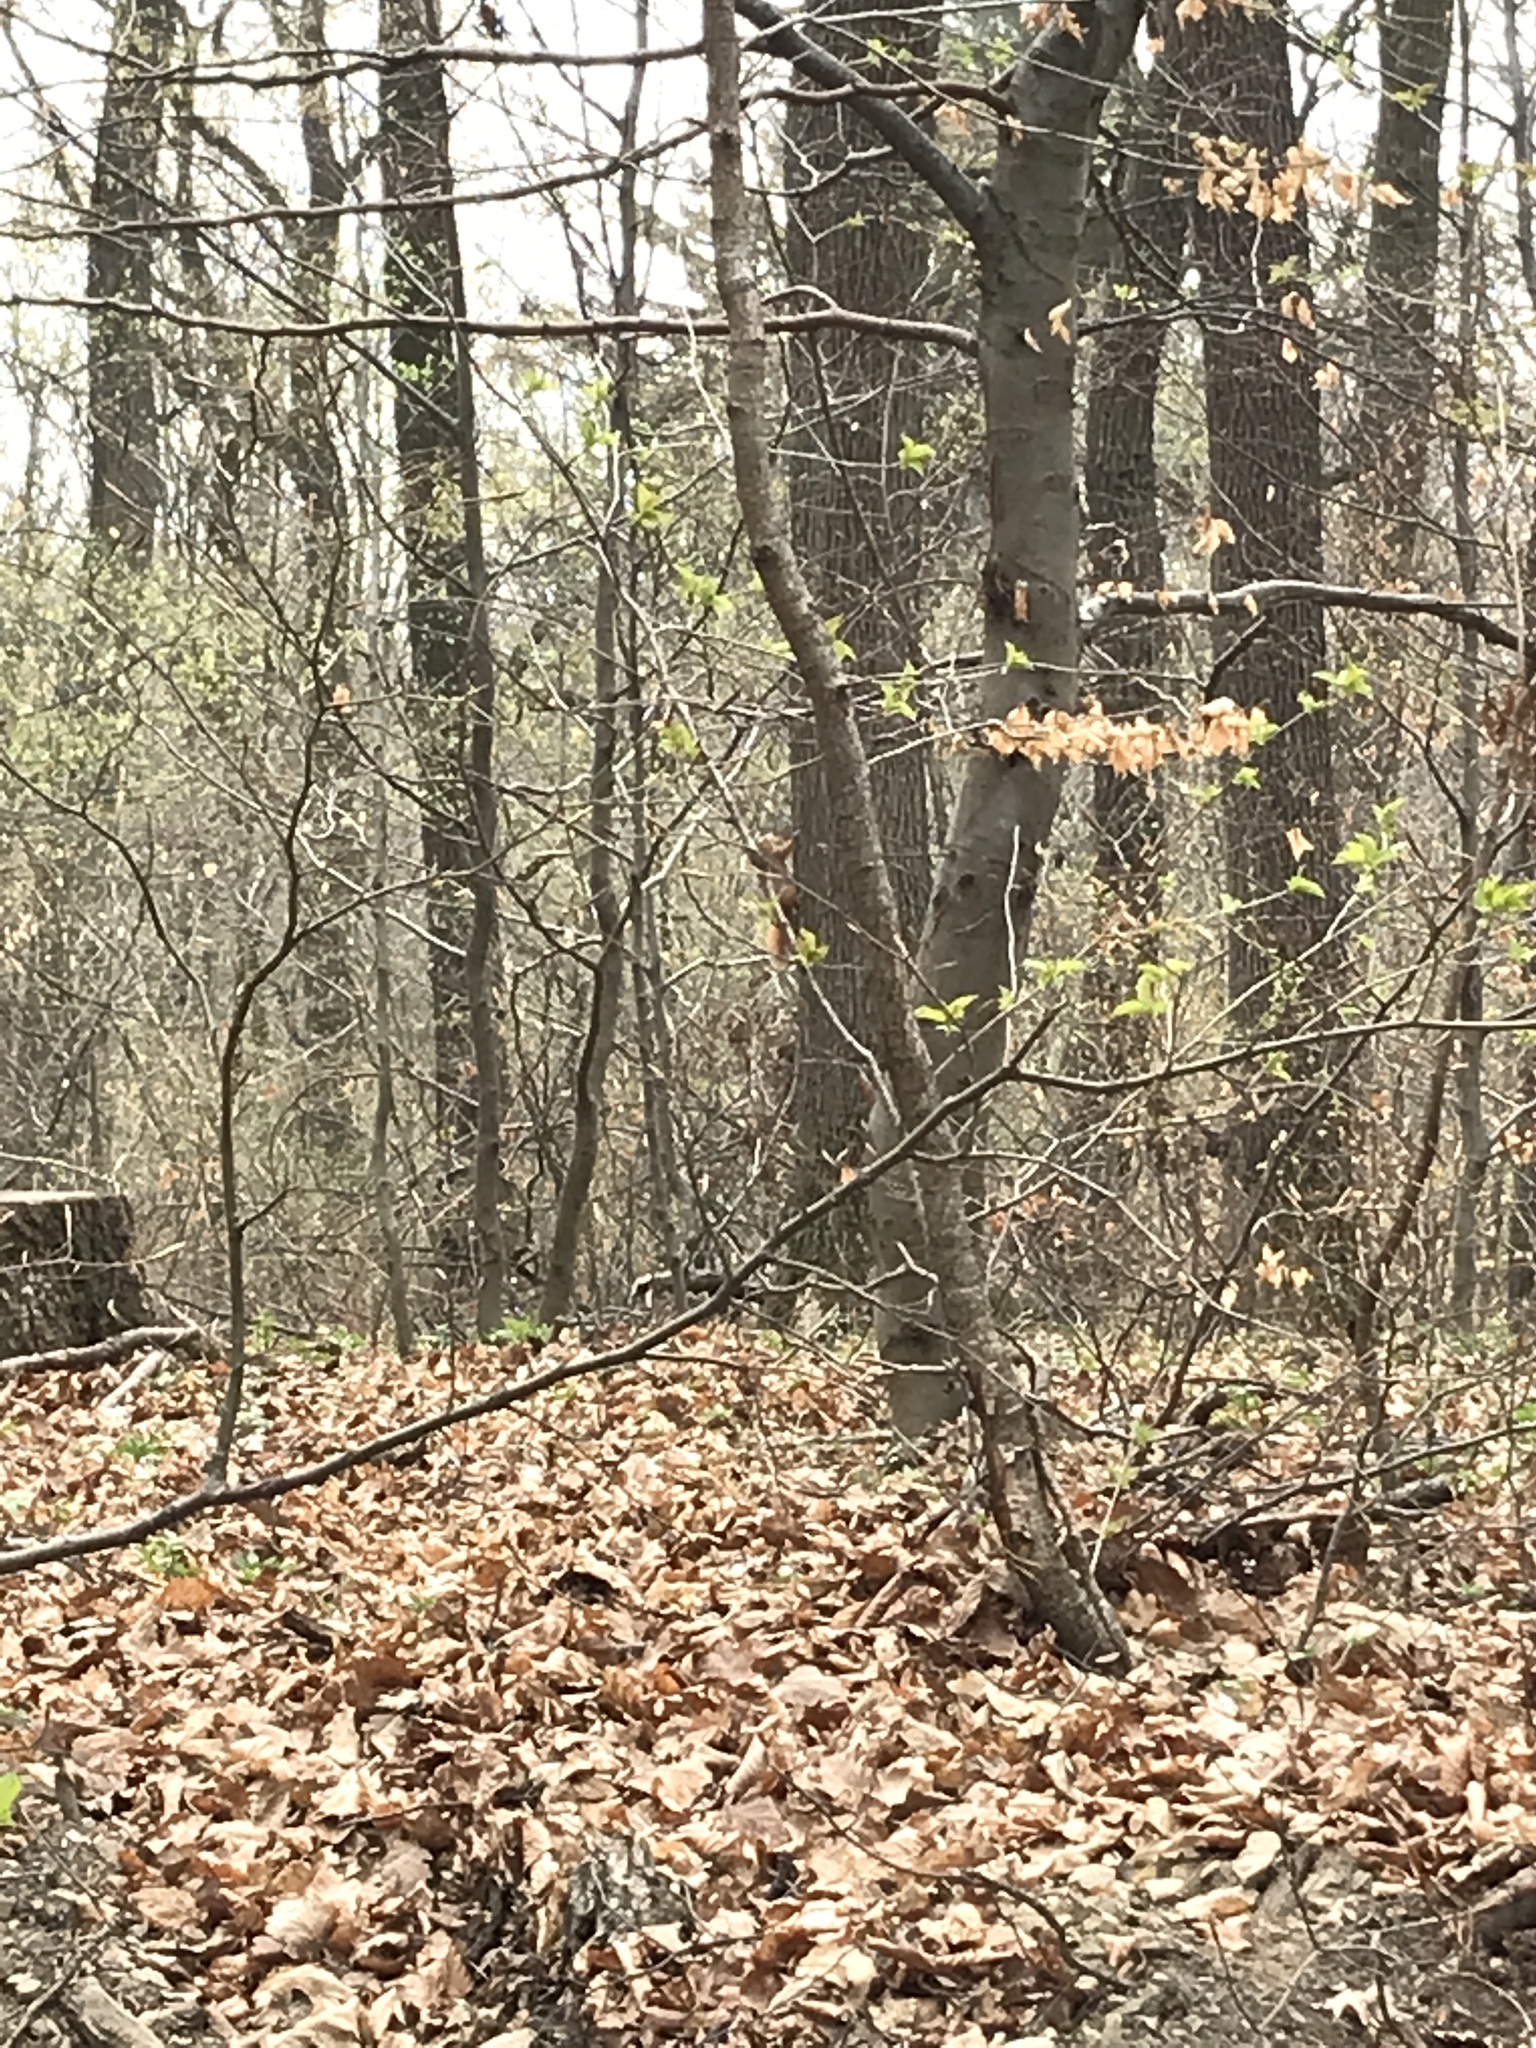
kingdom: Animalia
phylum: Chordata
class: Mammalia
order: Rodentia
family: Sciuridae
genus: Sciurus
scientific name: Sciurus vulgaris
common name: Eurasian red squirrel
